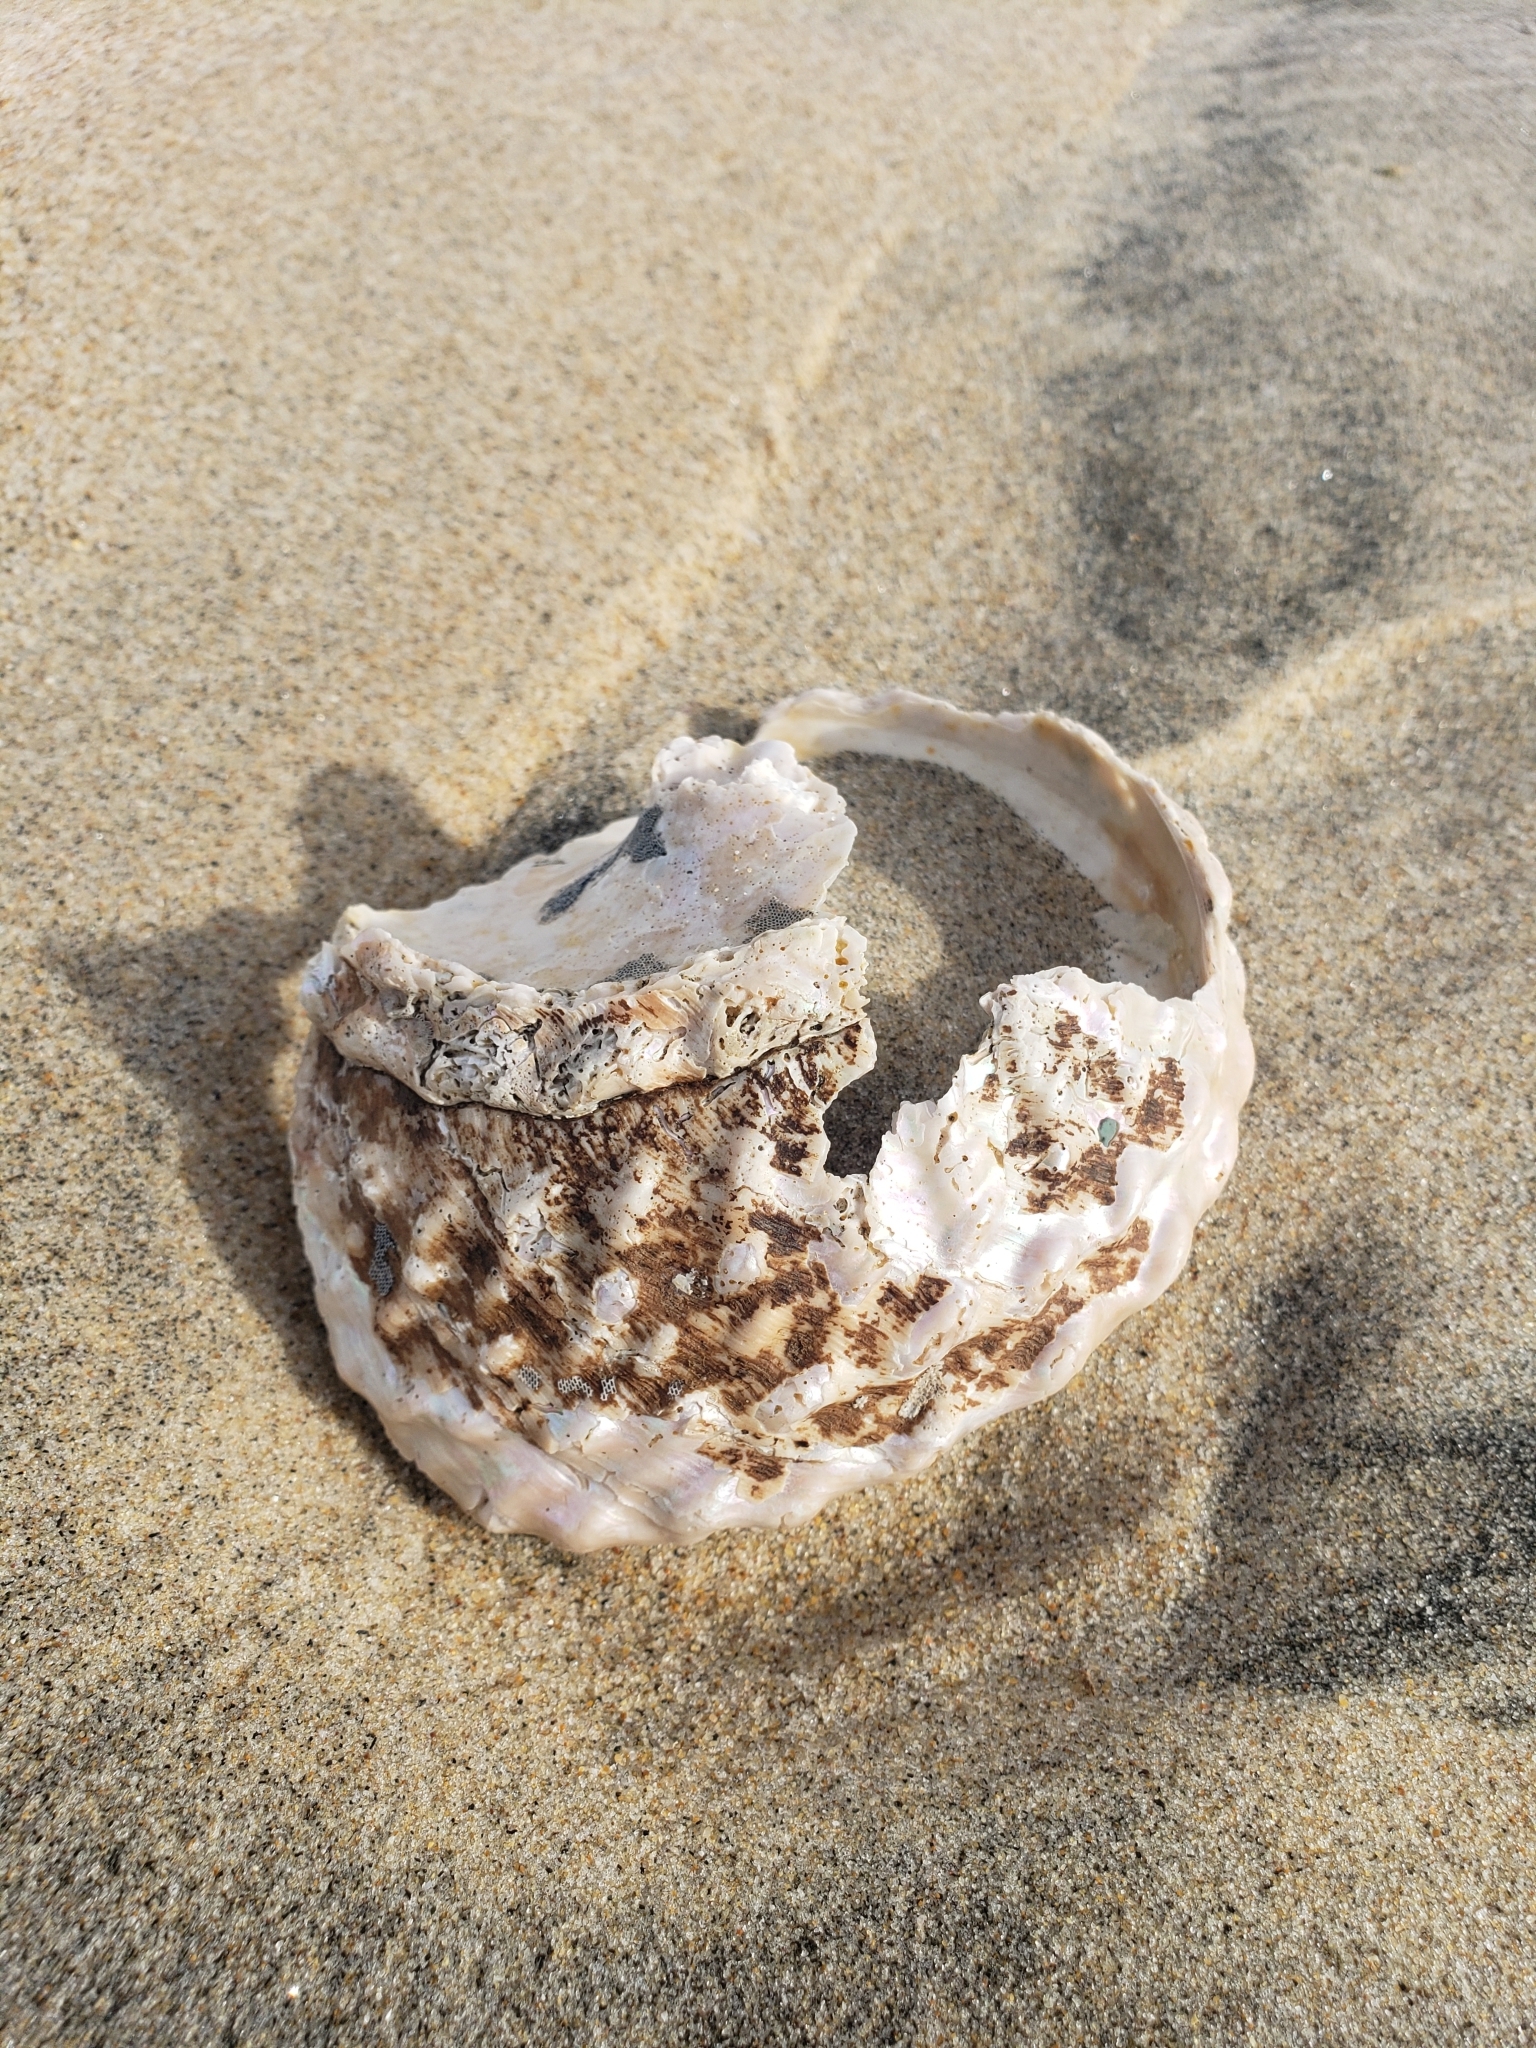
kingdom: Animalia
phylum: Mollusca
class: Gastropoda
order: Trochida
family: Turbinidae
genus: Megastraea
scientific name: Megastraea undosa
